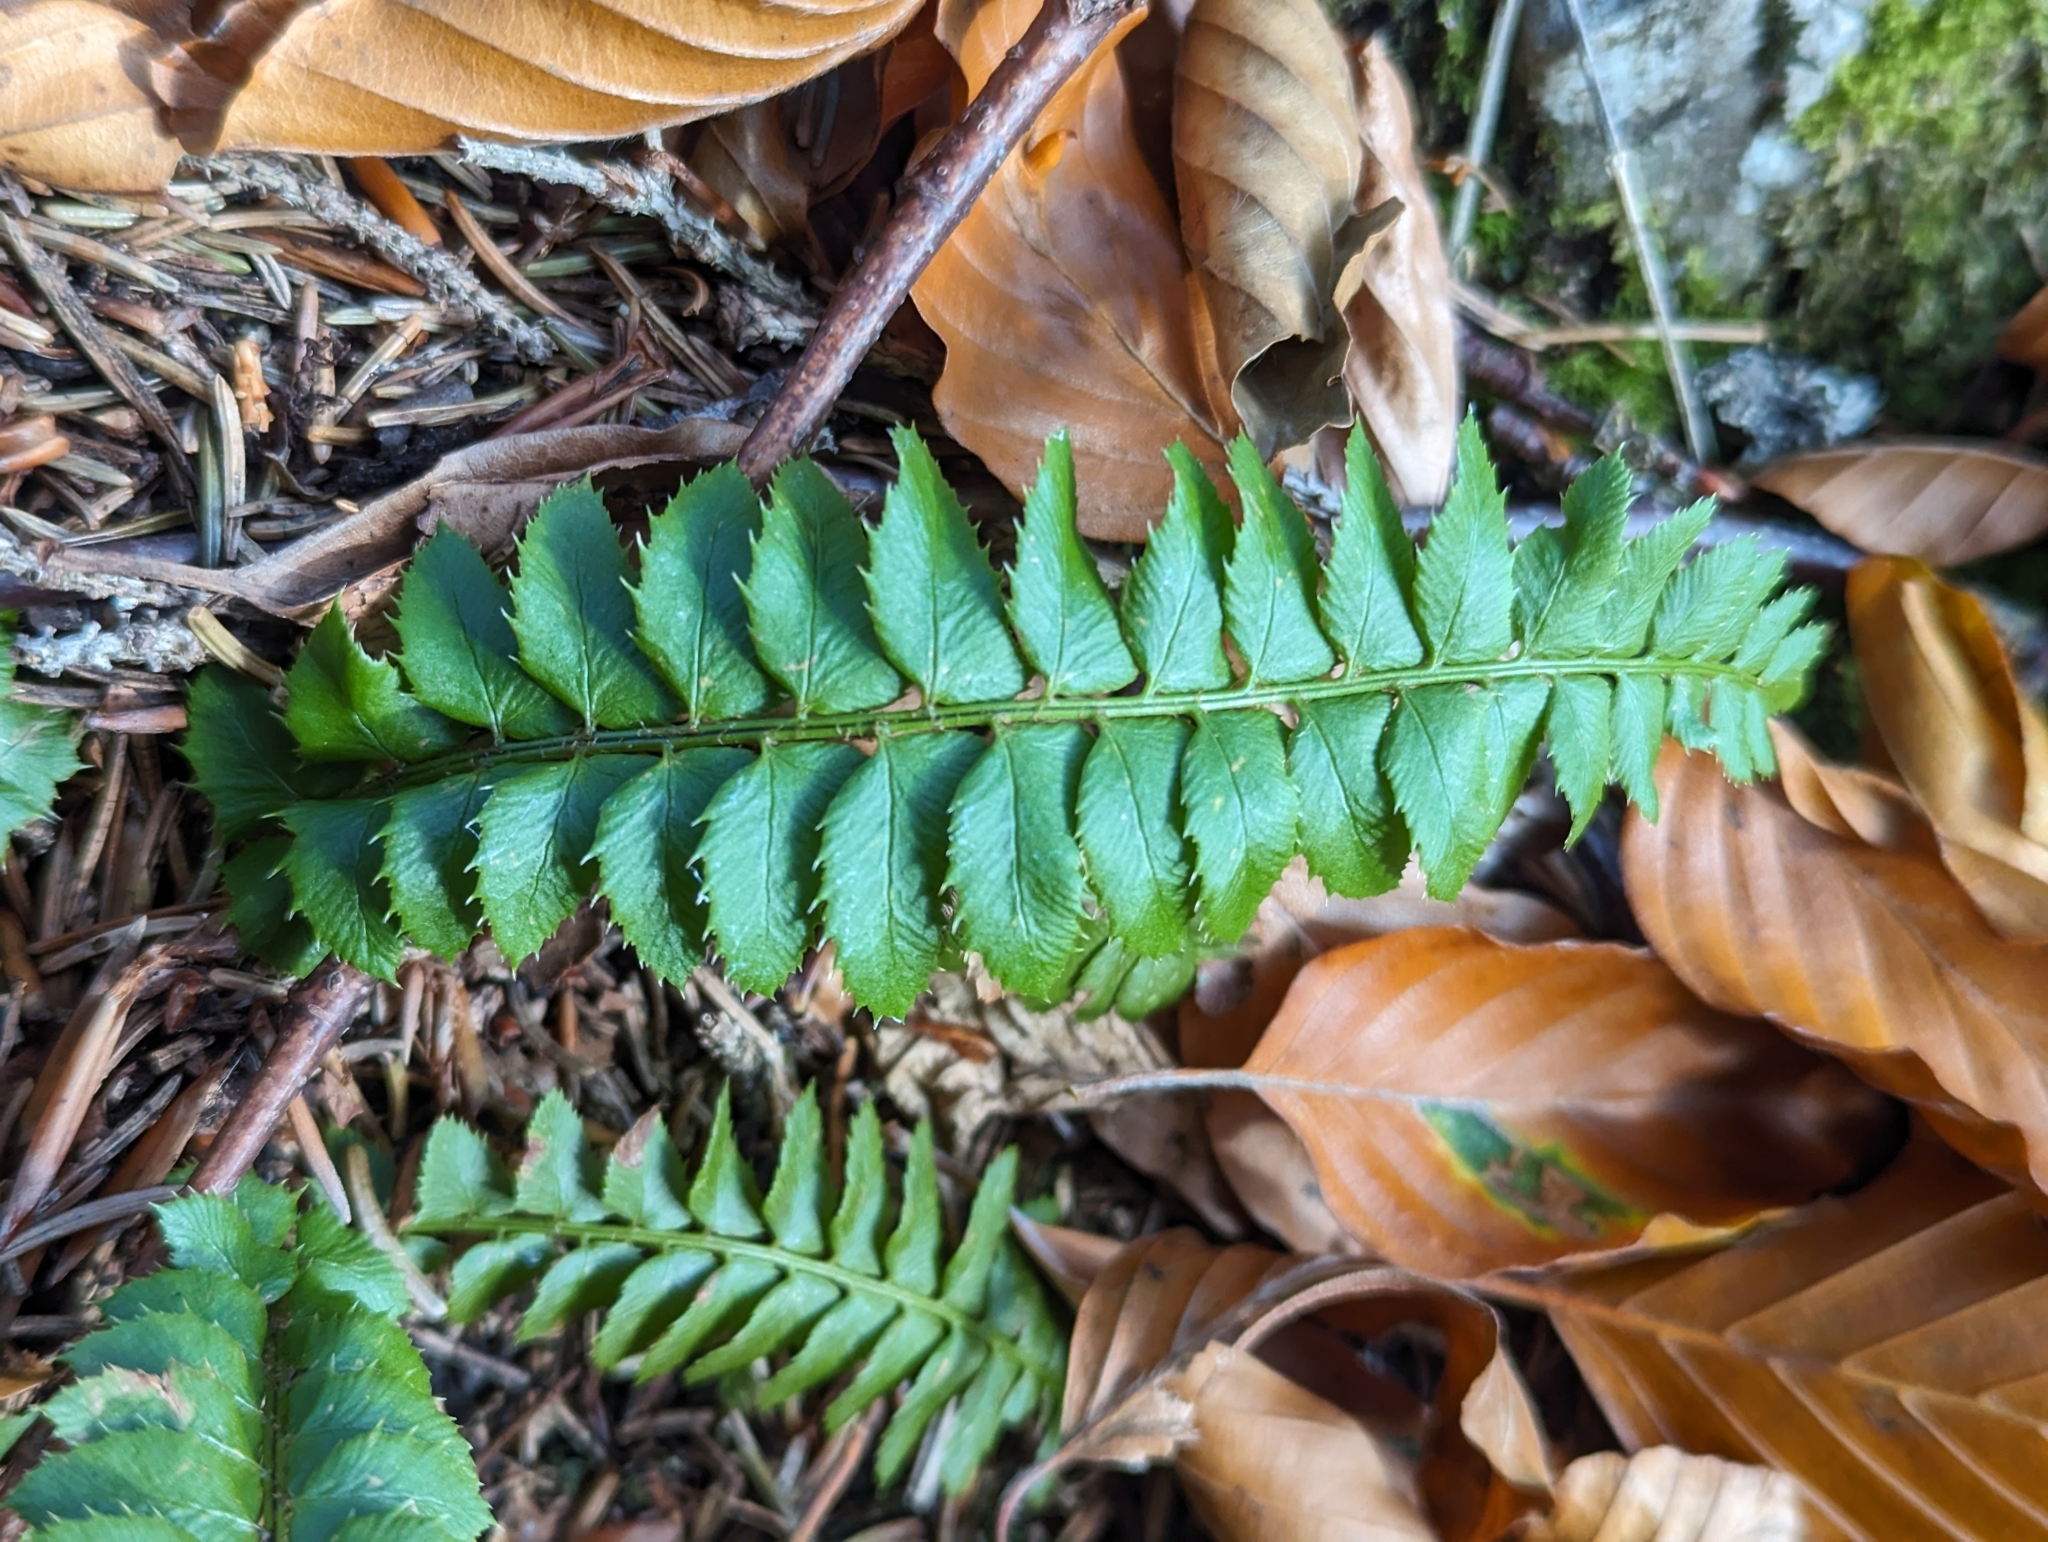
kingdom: Plantae
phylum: Tracheophyta
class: Polypodiopsida
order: Polypodiales
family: Dryopteridaceae
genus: Polystichum
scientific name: Polystichum lonchitis
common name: Holly fern
